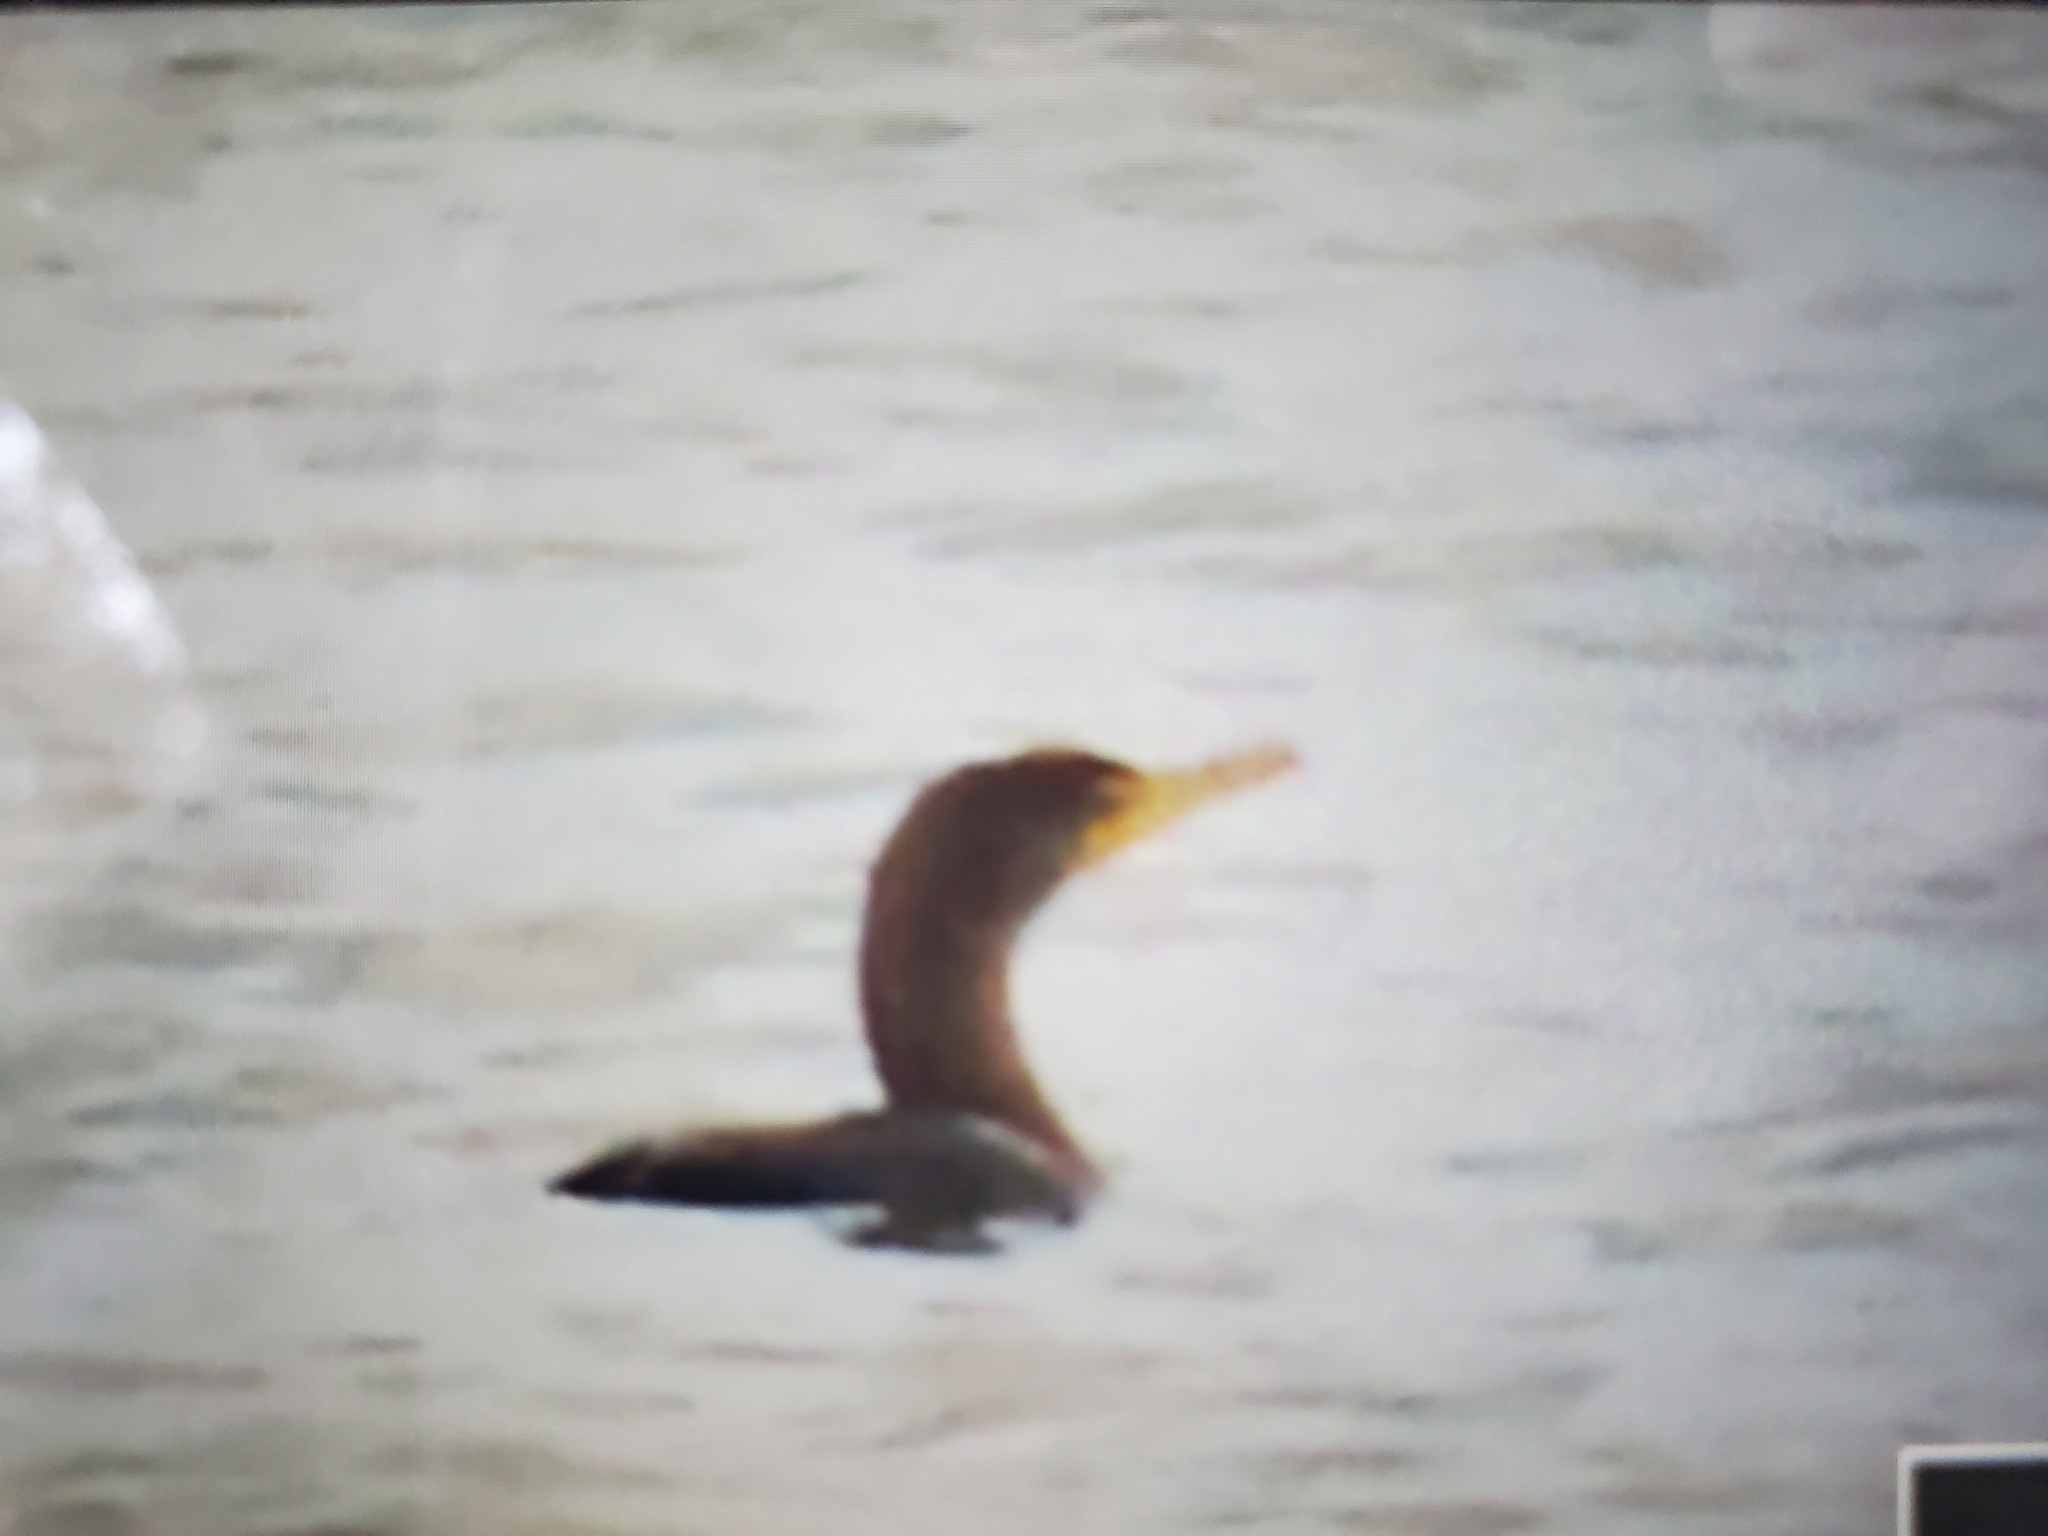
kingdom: Animalia
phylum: Chordata
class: Aves
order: Suliformes
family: Phalacrocoracidae
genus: Phalacrocorax
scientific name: Phalacrocorax auritus
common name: Double-crested cormorant
